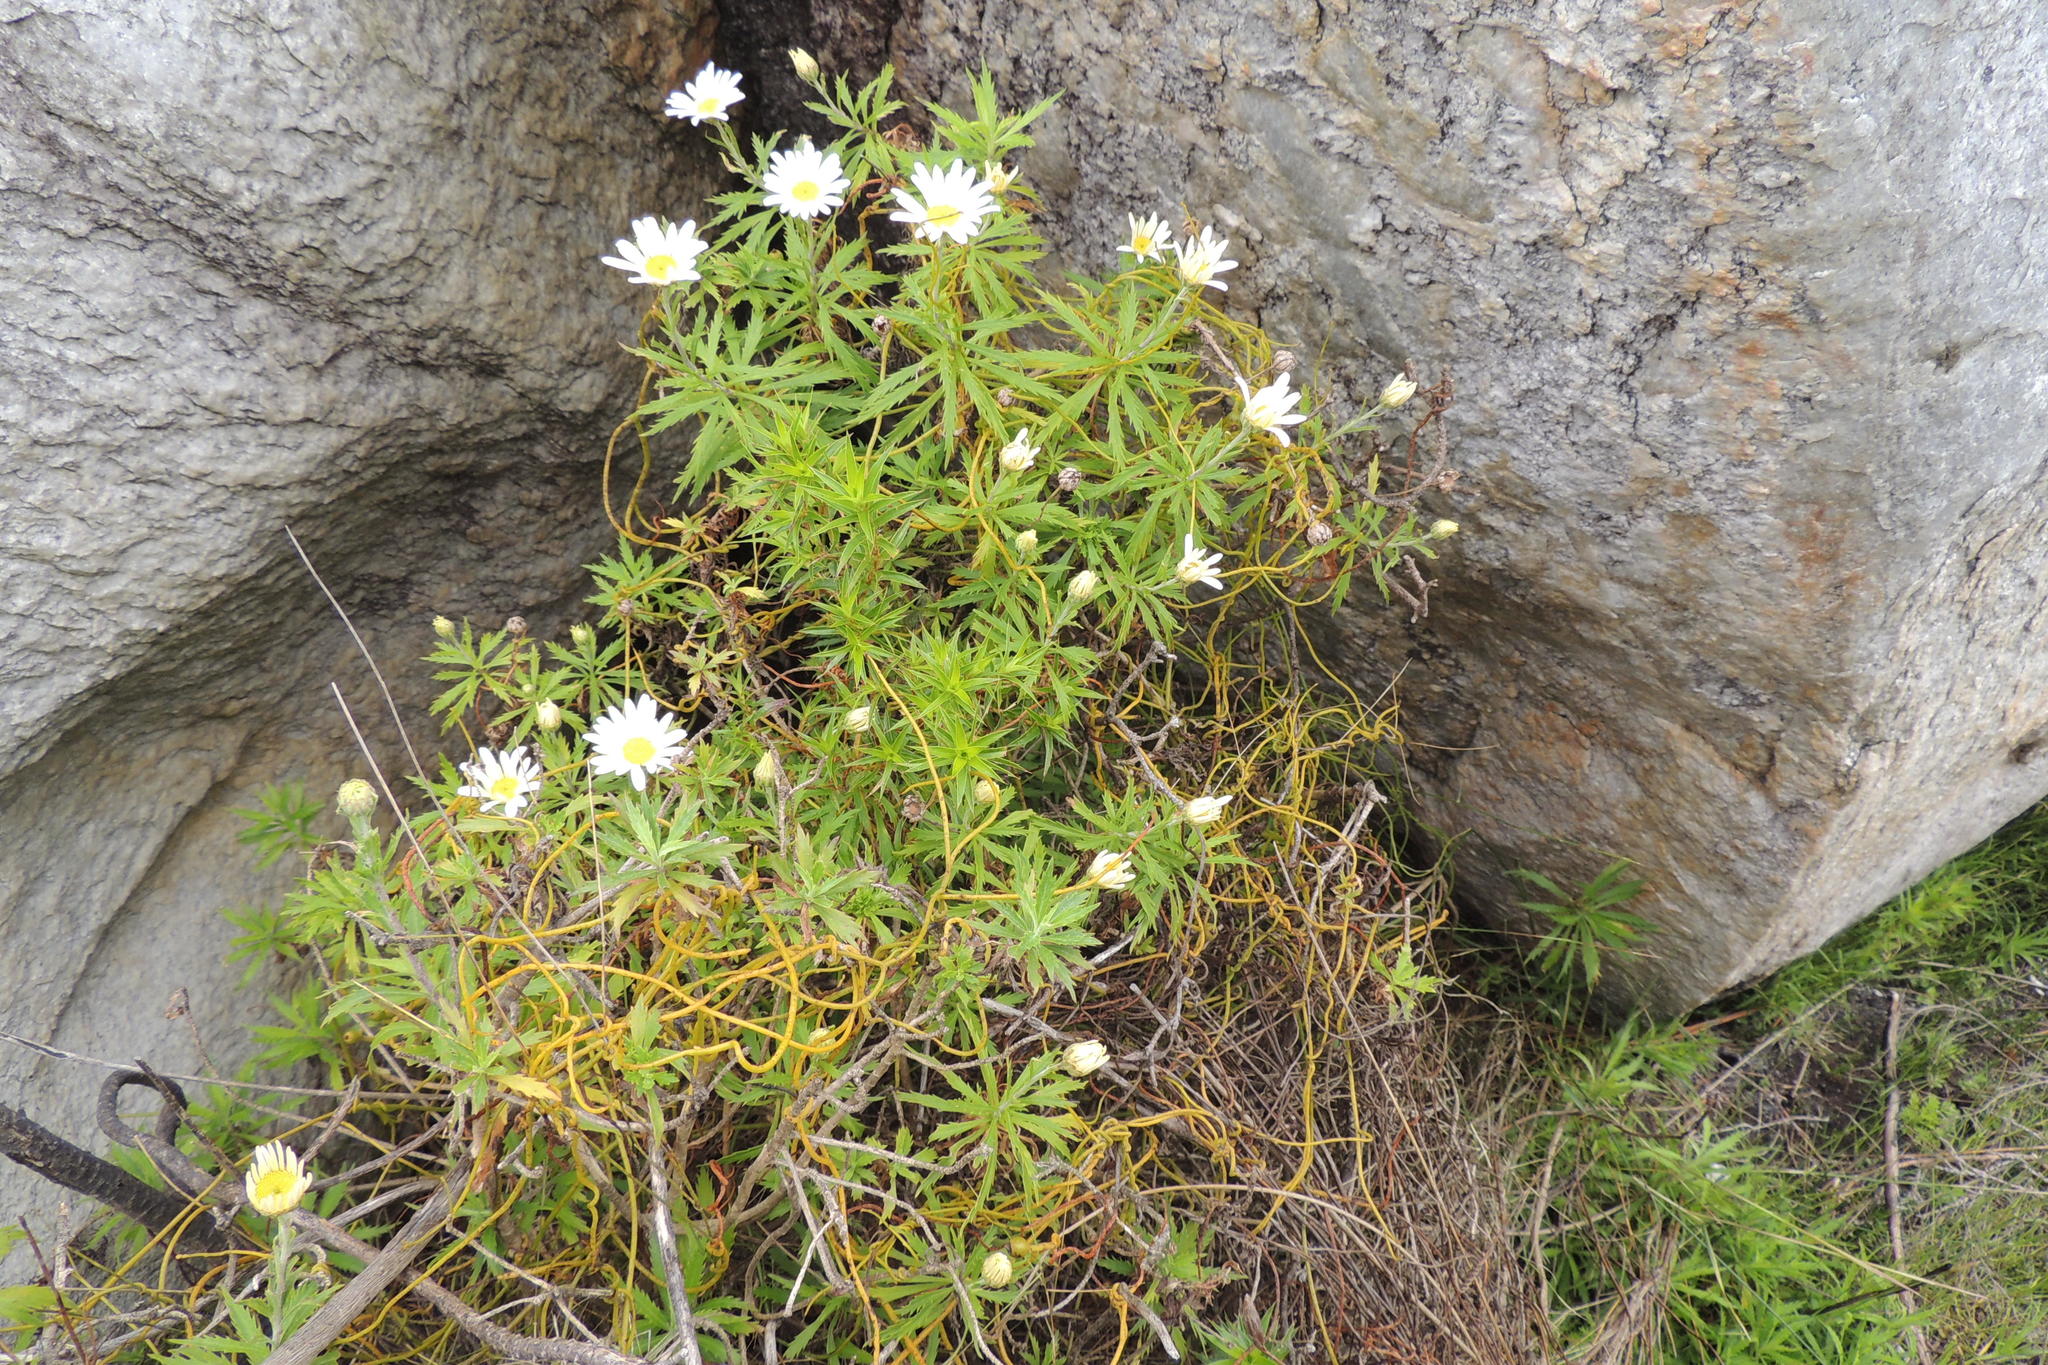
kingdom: Plantae
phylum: Tracheophyta
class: Magnoliopsida
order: Asterales
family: Asteraceae
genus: Osmitopsis
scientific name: Osmitopsis osmitoides
